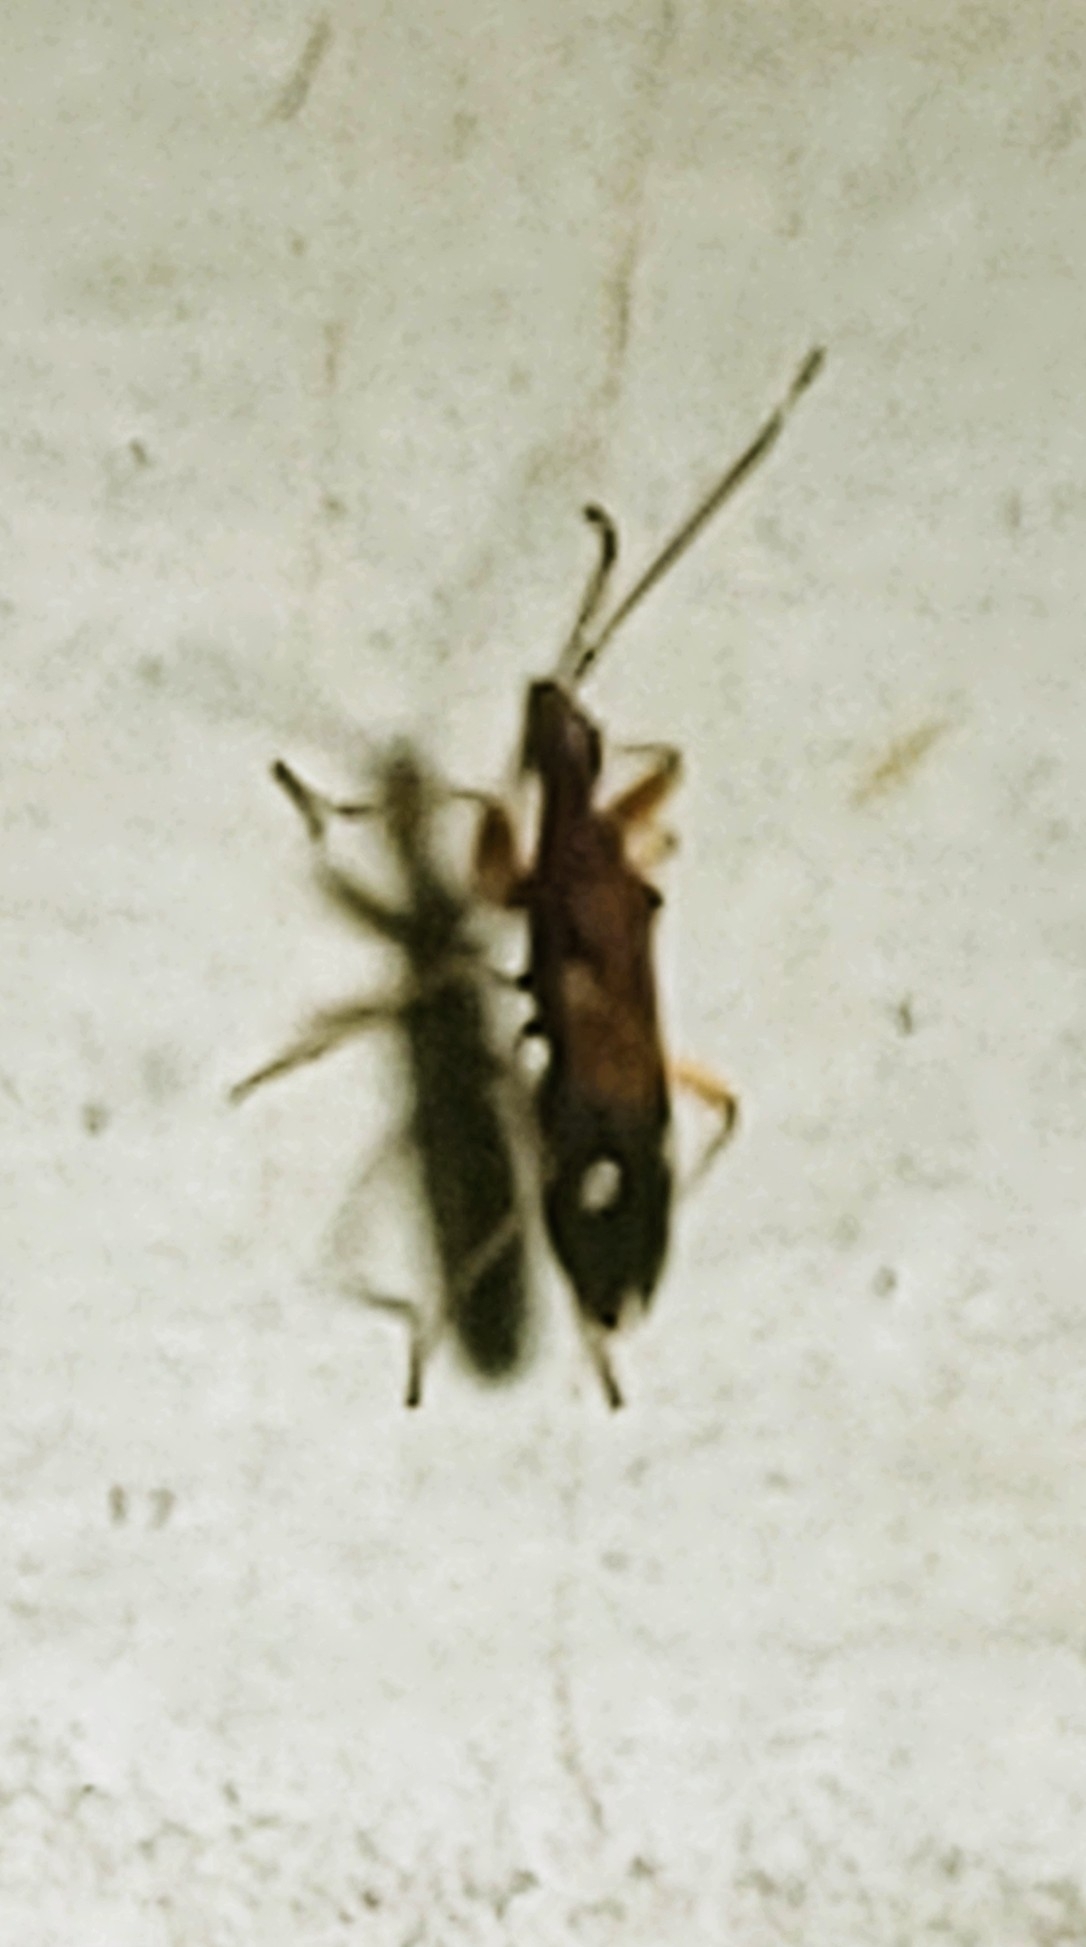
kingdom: Animalia
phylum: Arthropoda
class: Insecta
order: Hemiptera
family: Rhyparochromidae
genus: Heraeus
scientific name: Heraeus triguttatus
